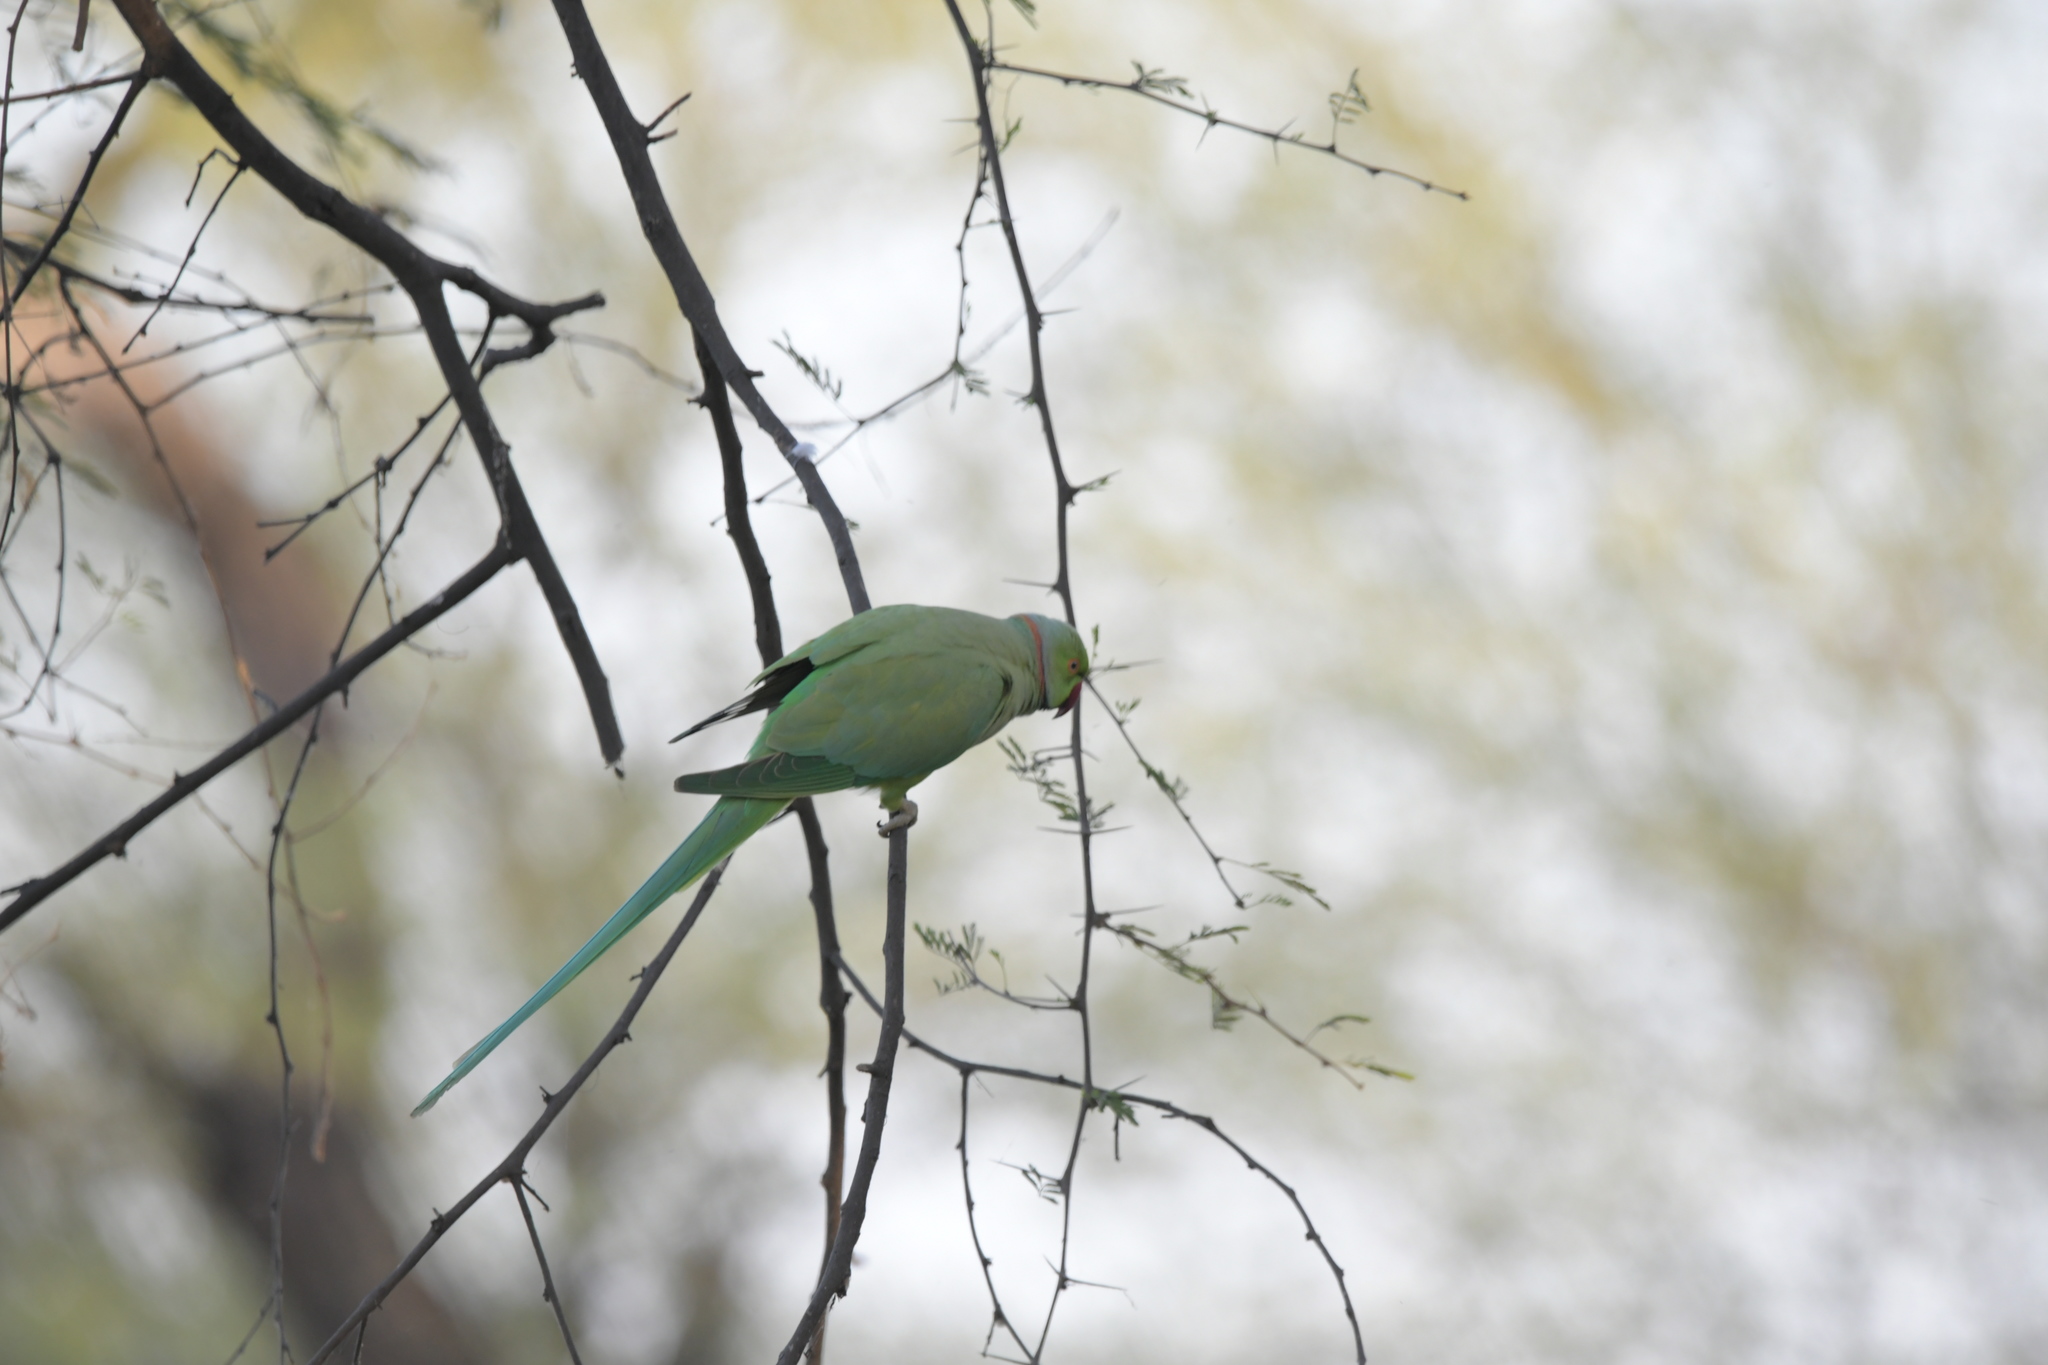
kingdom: Animalia
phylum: Chordata
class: Aves
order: Psittaciformes
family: Psittacidae
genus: Psittacula
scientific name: Psittacula krameri
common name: Rose-ringed parakeet
